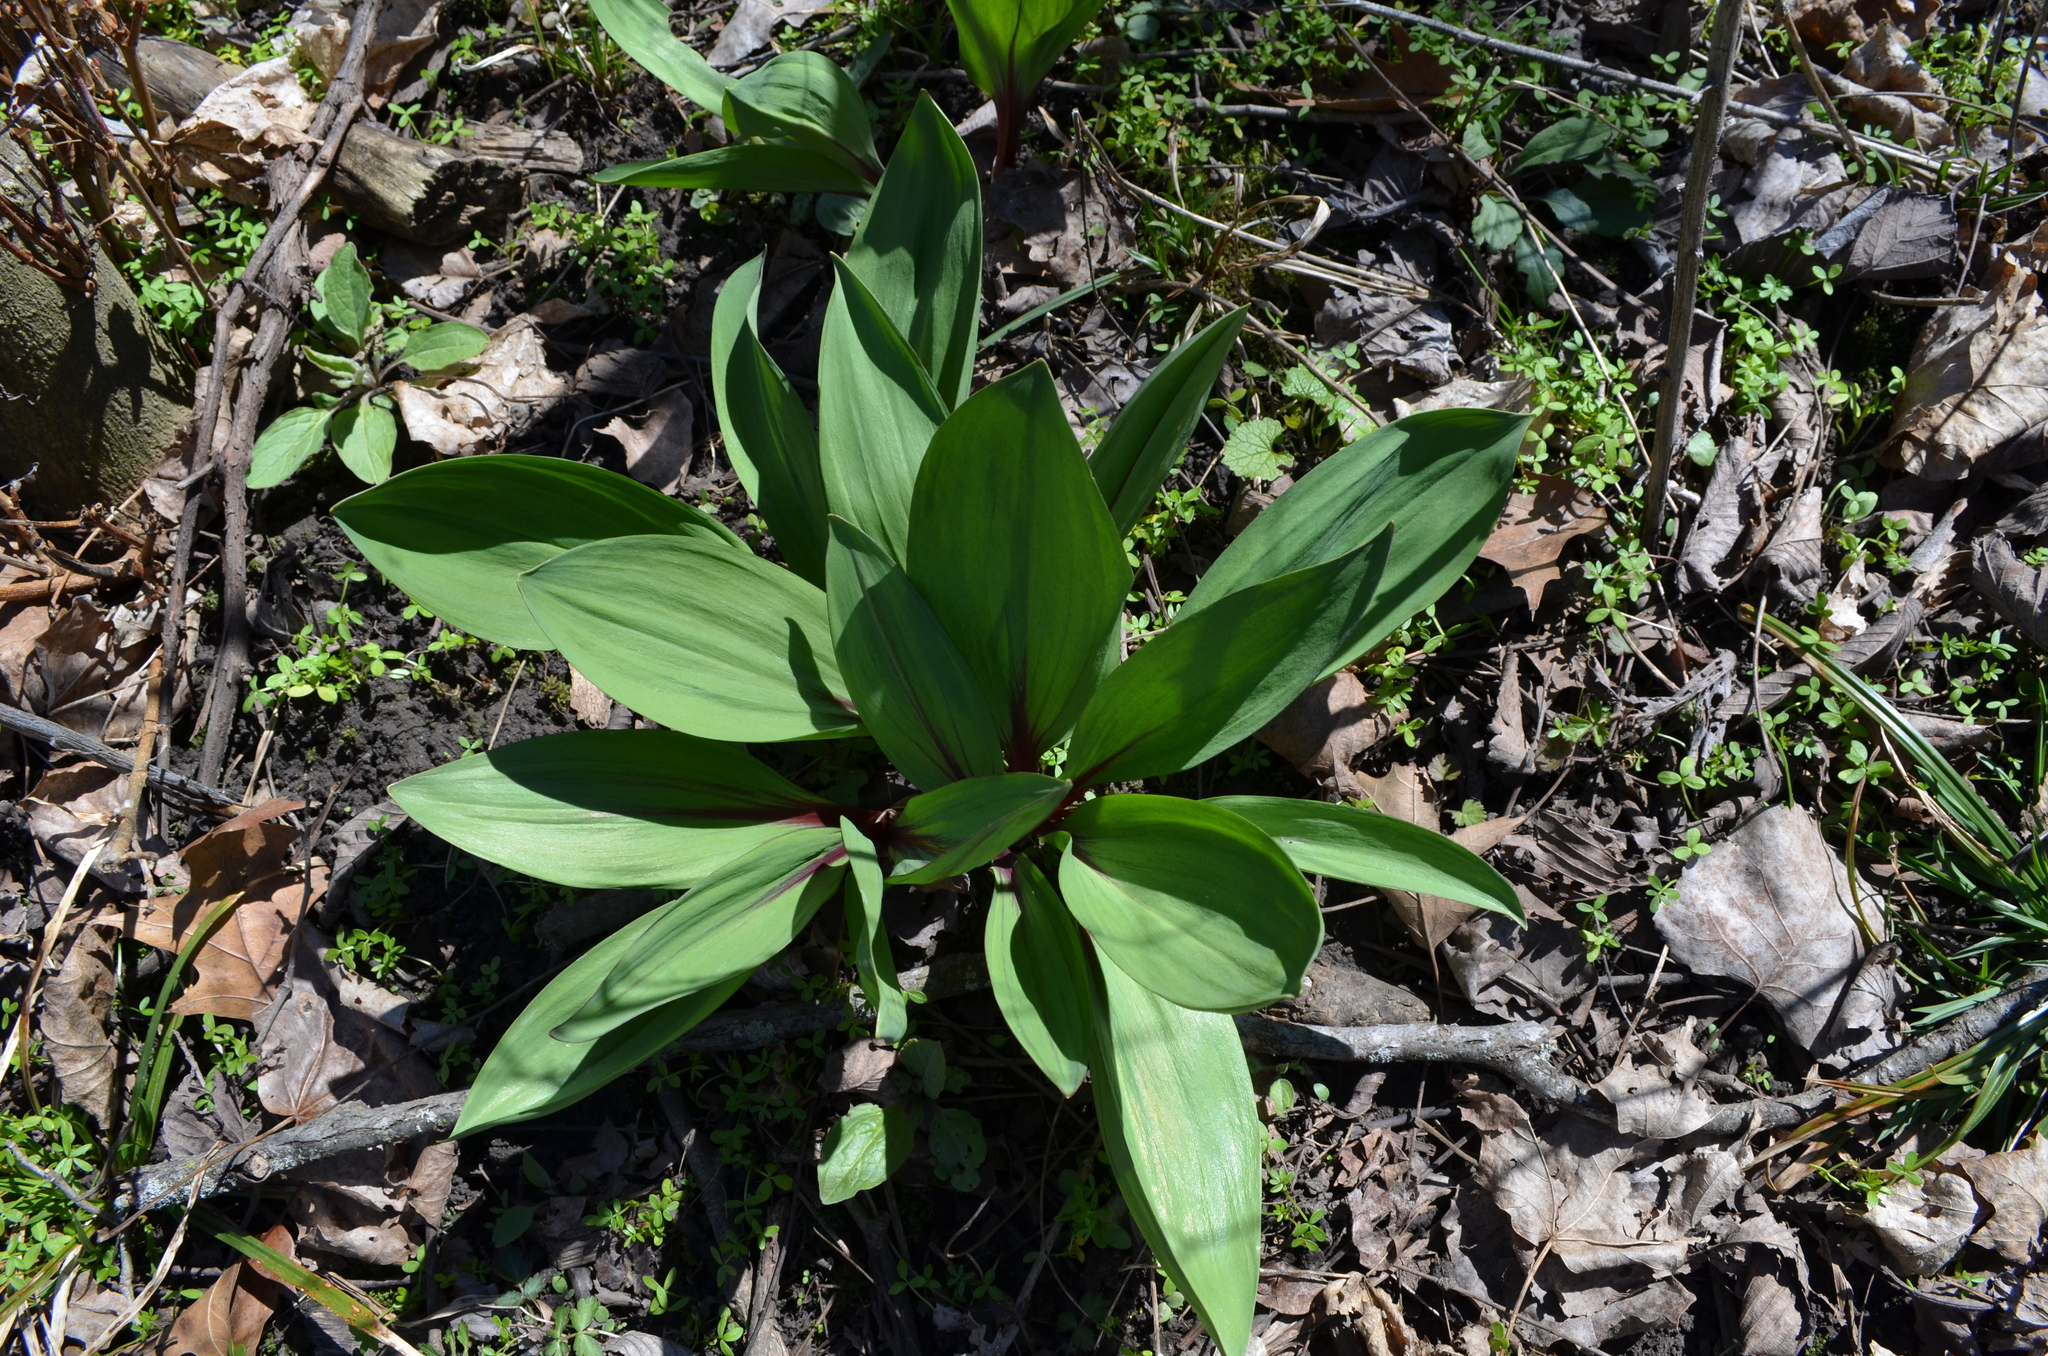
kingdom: Plantae
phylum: Tracheophyta
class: Liliopsida
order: Asparagales
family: Amaryllidaceae
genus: Allium
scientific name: Allium tricoccum
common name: Ramp
